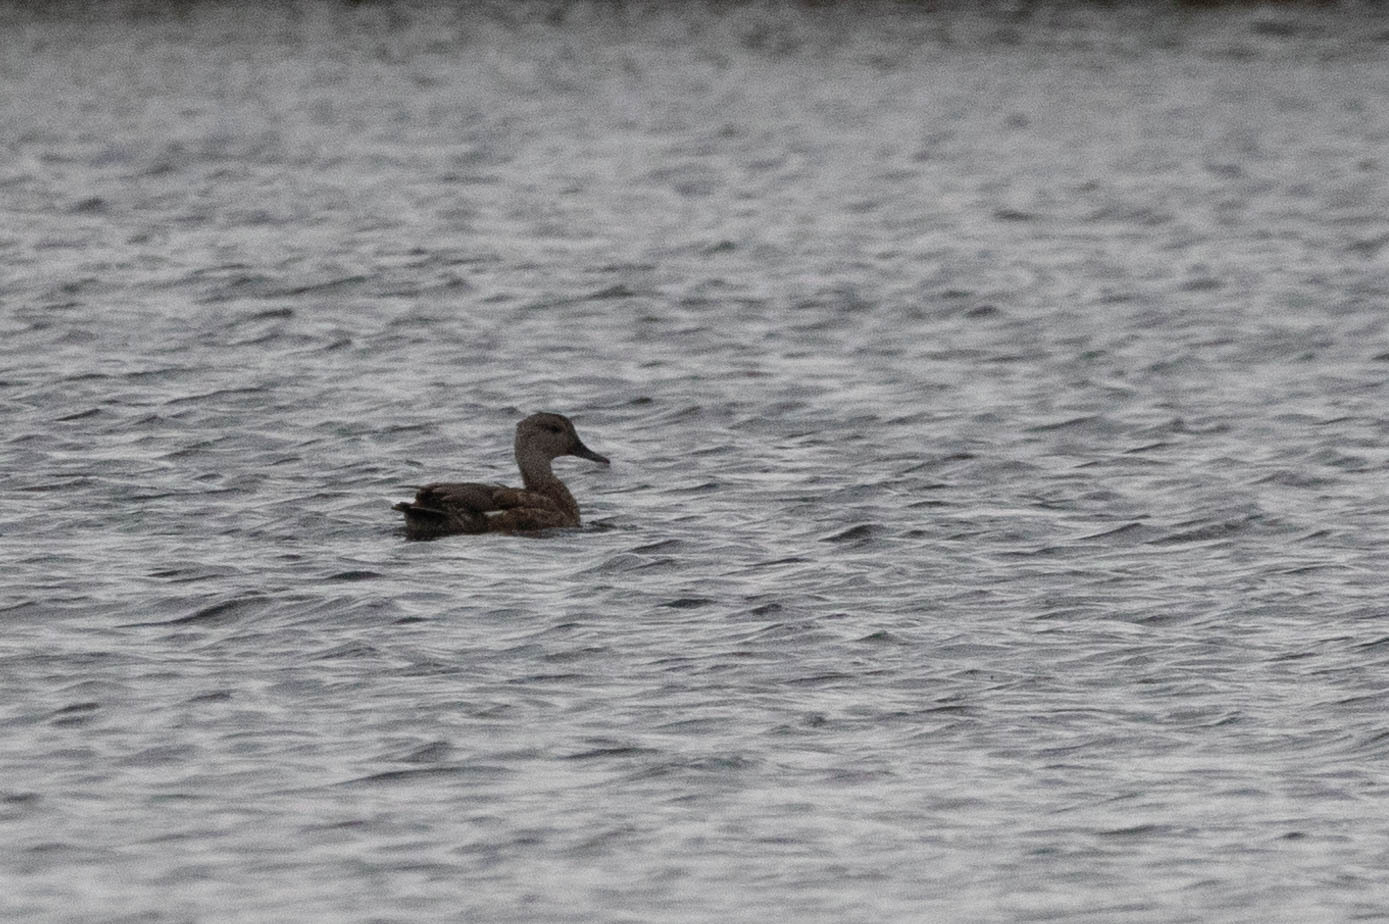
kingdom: Animalia
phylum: Chordata
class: Aves
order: Anseriformes
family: Anatidae
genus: Mareca
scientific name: Mareca strepera
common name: Gadwall
